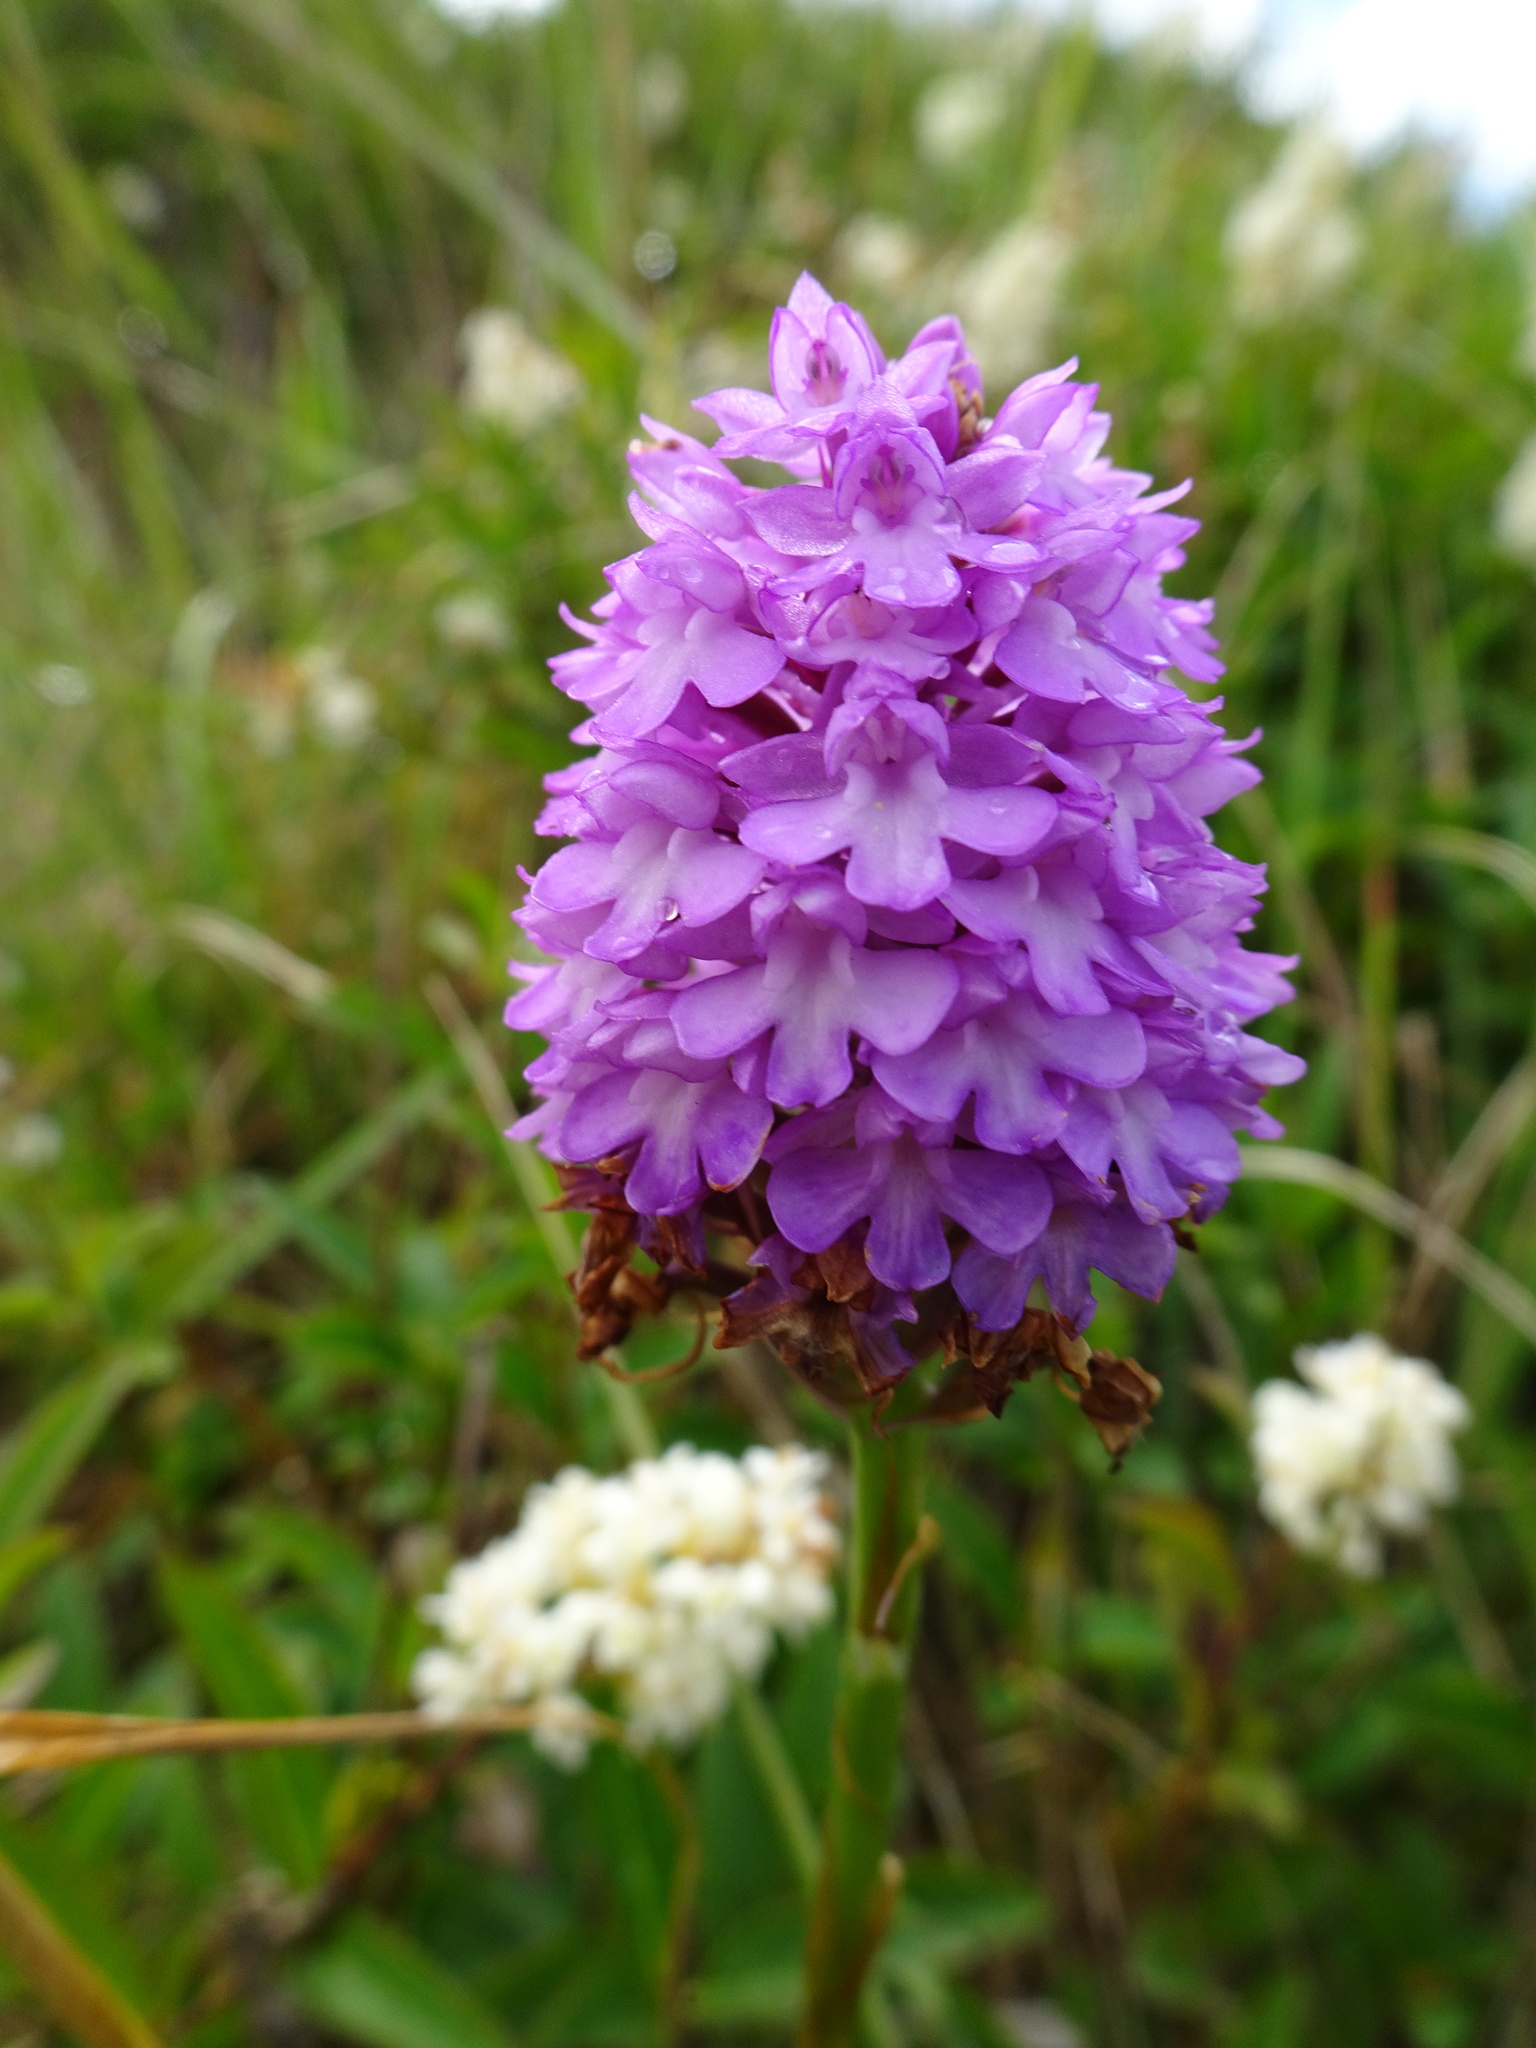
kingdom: Plantae
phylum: Tracheophyta
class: Liliopsida
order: Asparagales
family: Orchidaceae
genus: Anacamptis
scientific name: Anacamptis pyramidalis
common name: Pyramidal orchid
